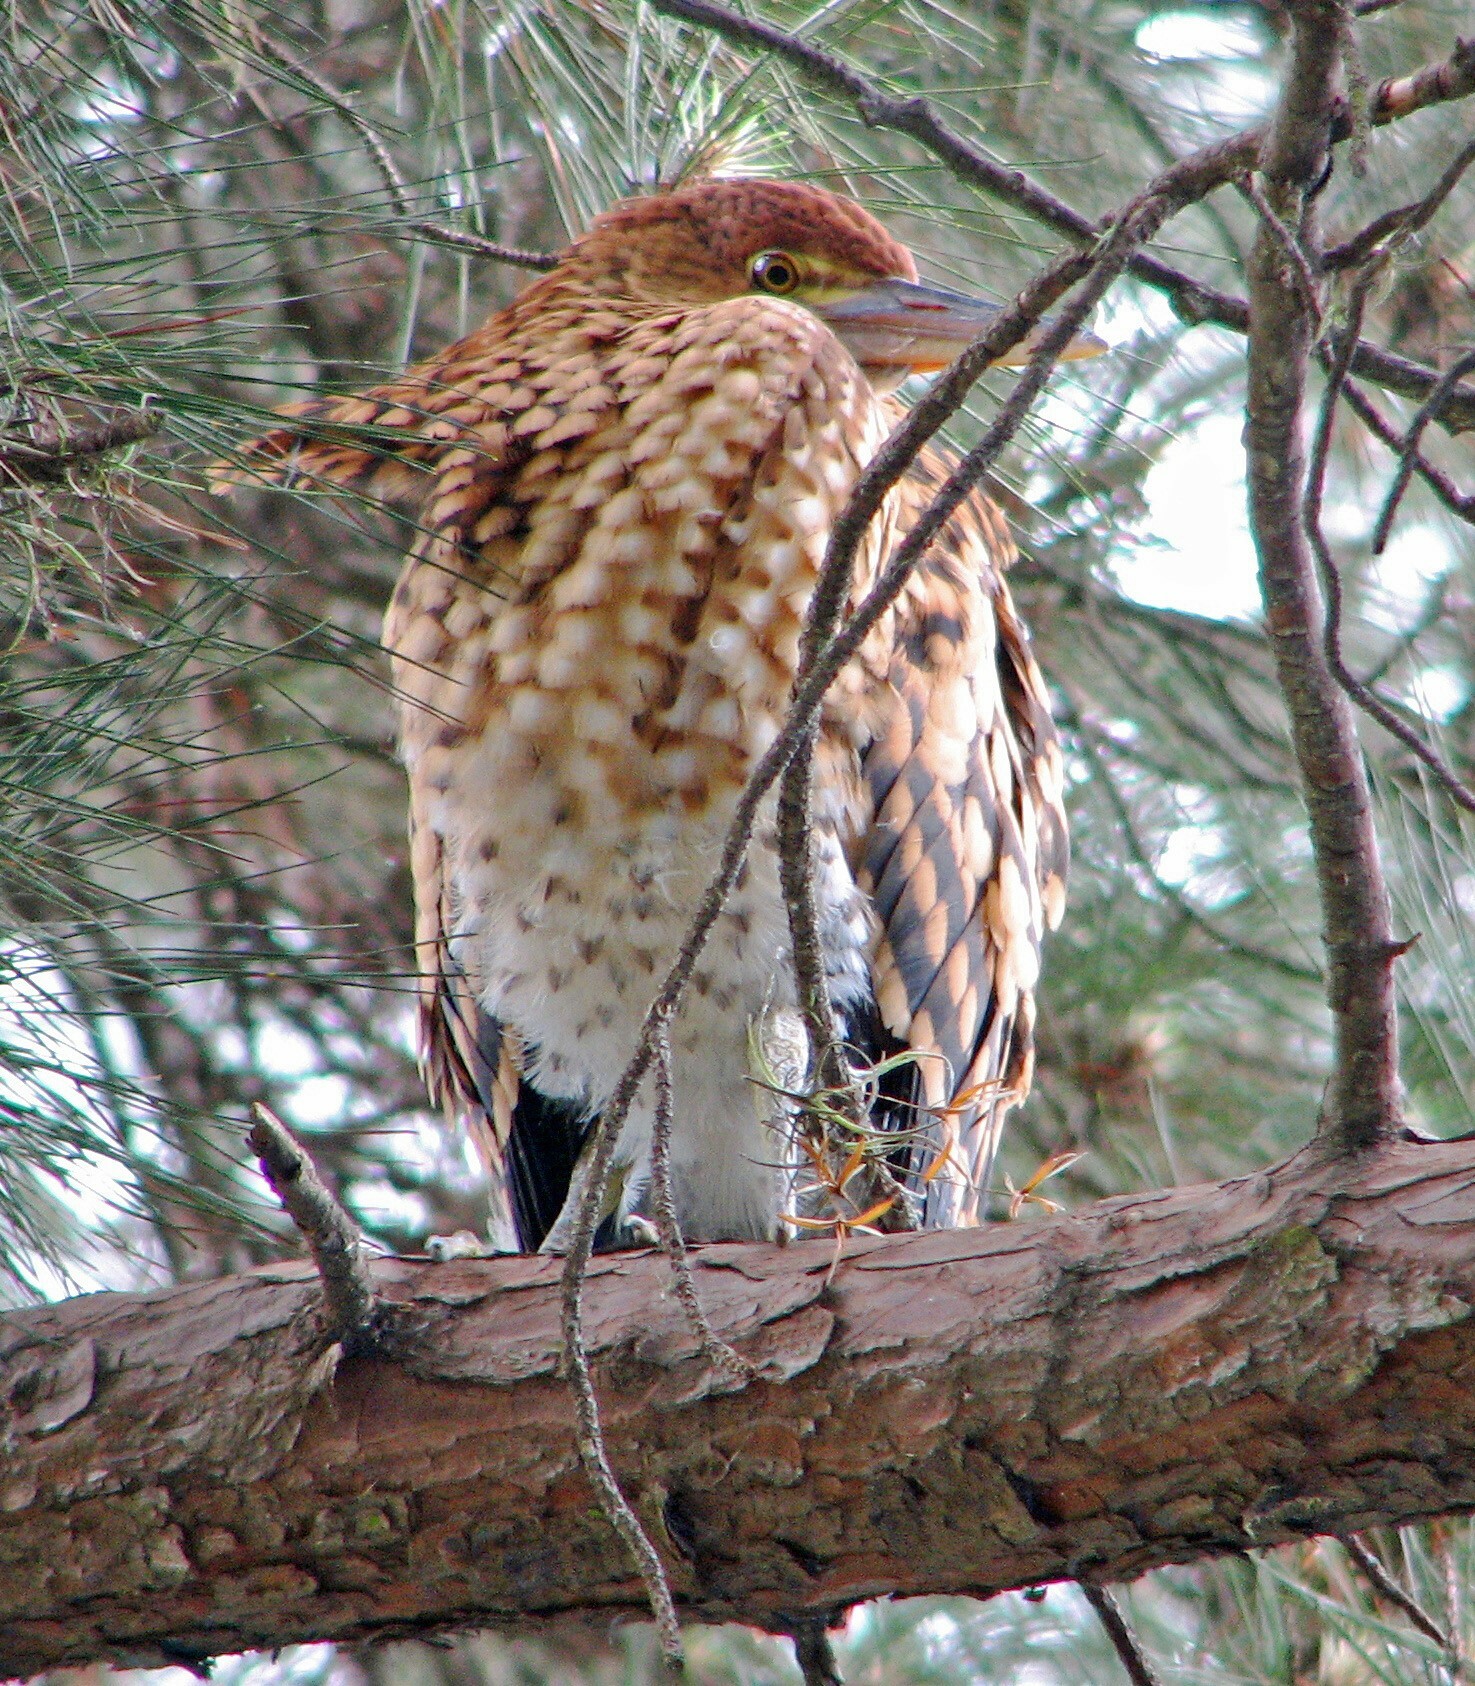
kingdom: Animalia
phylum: Chordata
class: Aves
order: Pelecaniformes
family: Ardeidae
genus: Tigrisoma
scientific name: Tigrisoma lineatum
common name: Rufescent tiger-heron
